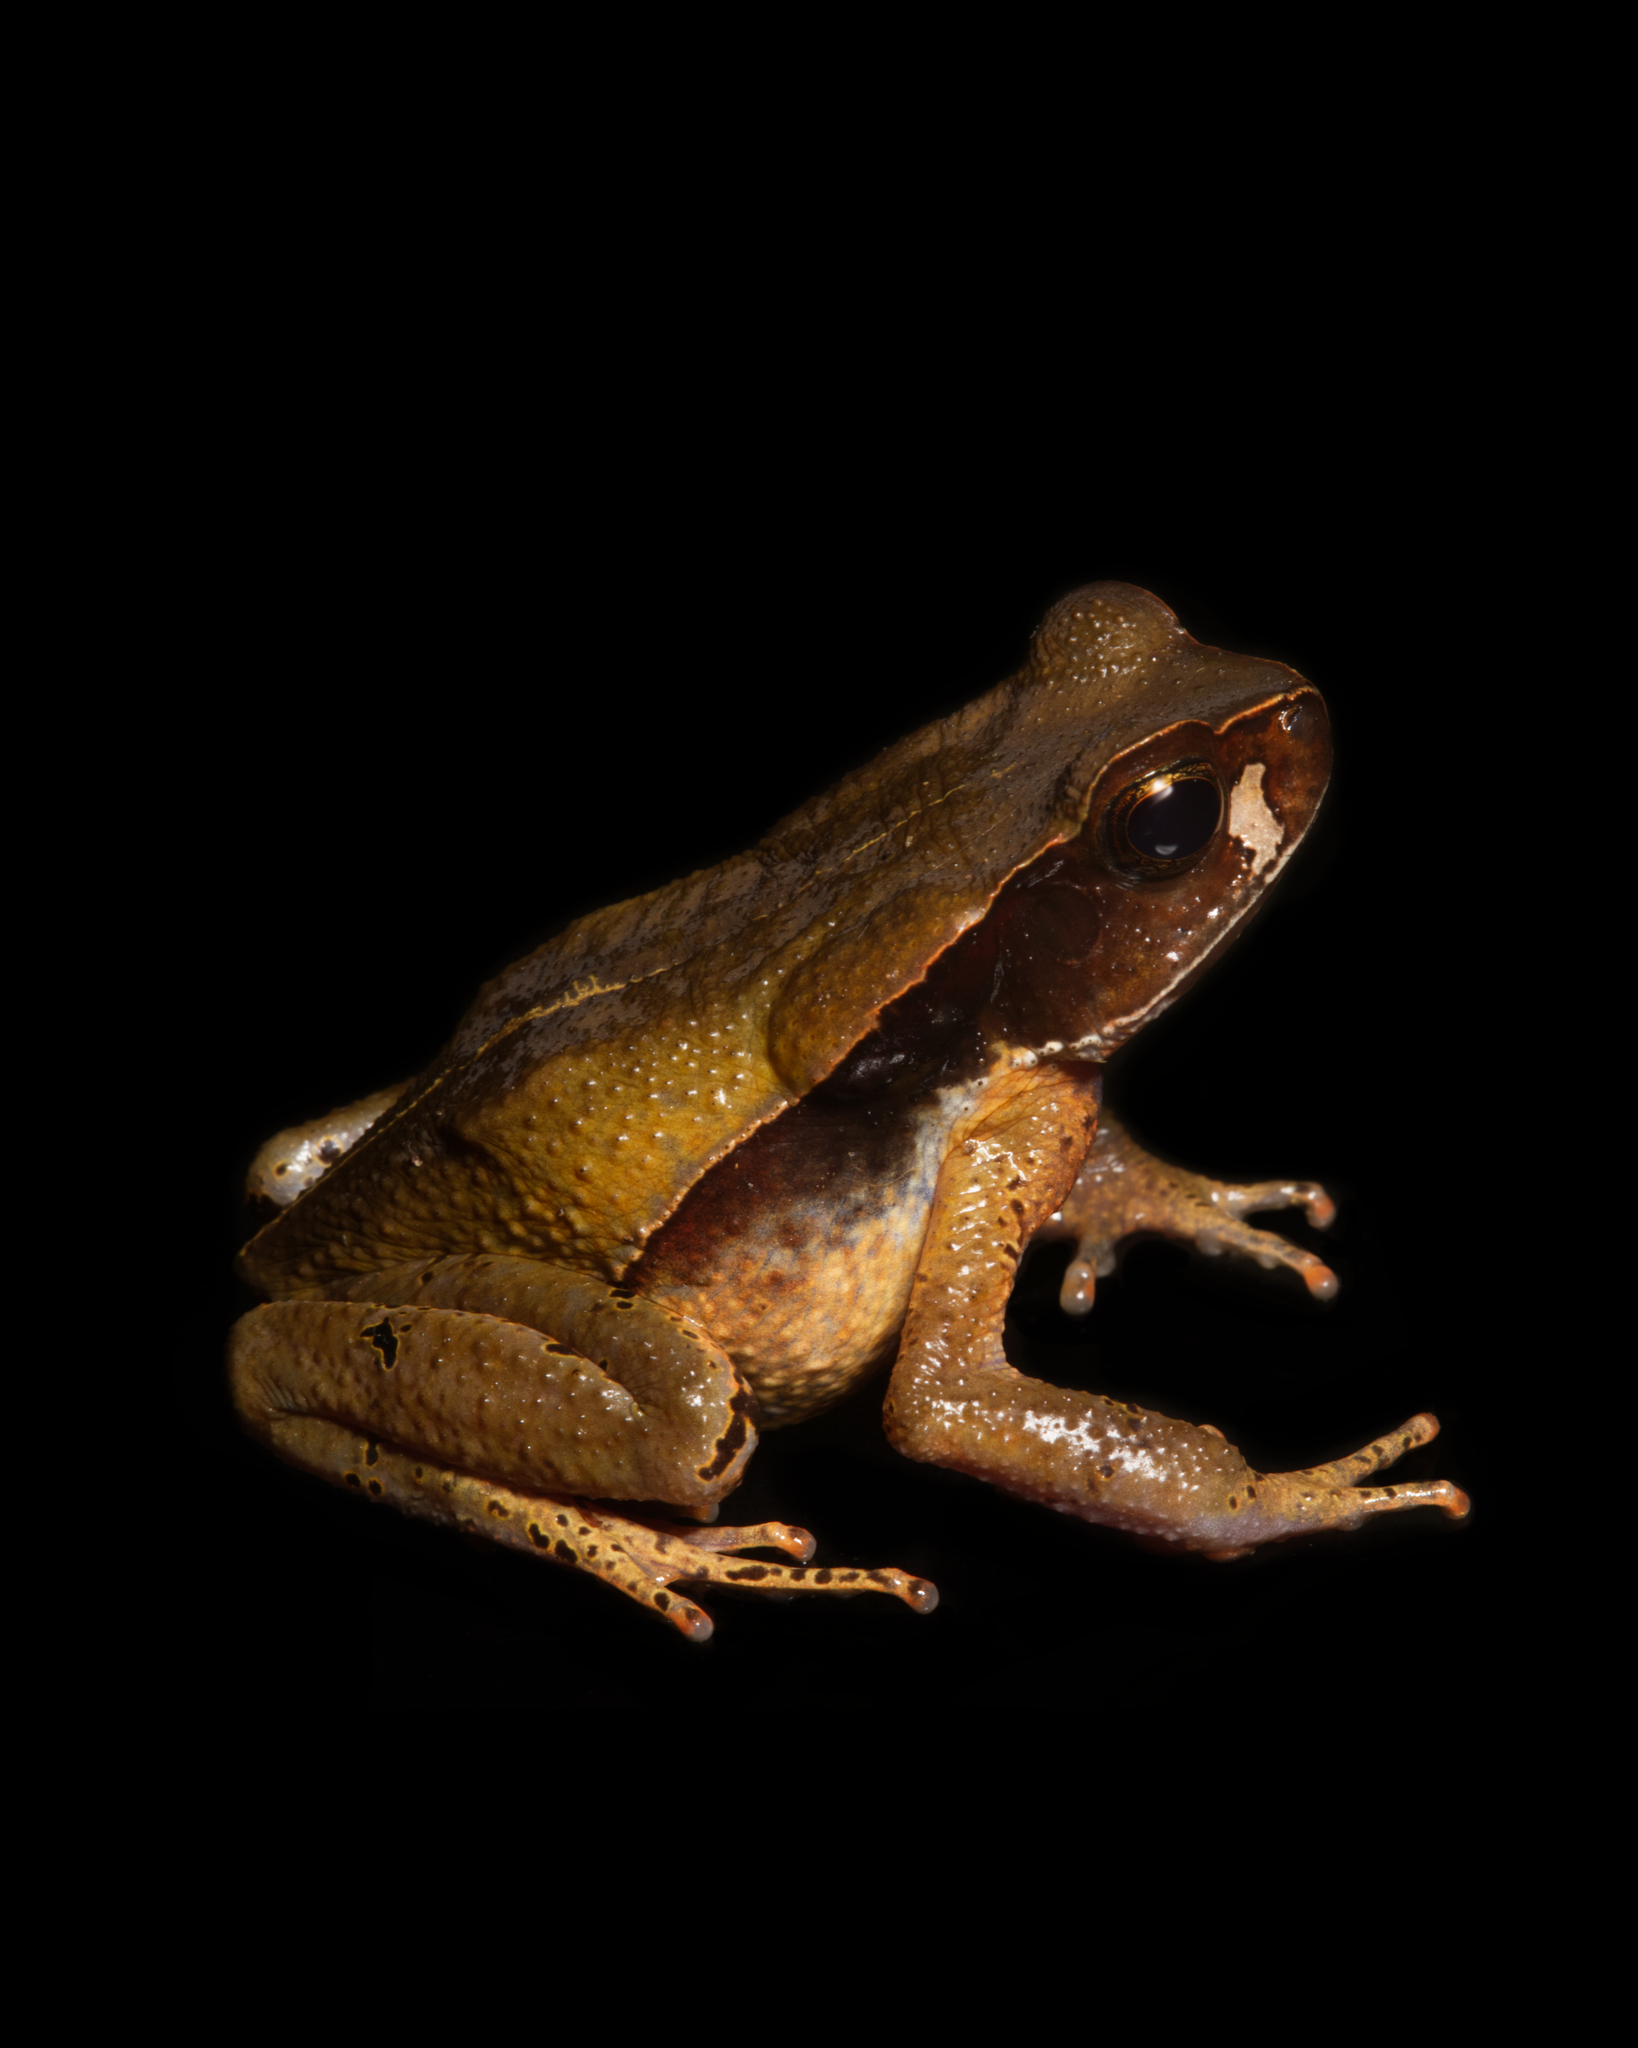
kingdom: Animalia
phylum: Chordata
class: Amphibia
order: Anura
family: Bufonidae
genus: Rhaebo
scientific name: Rhaebo haematiticus
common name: Truando toad
